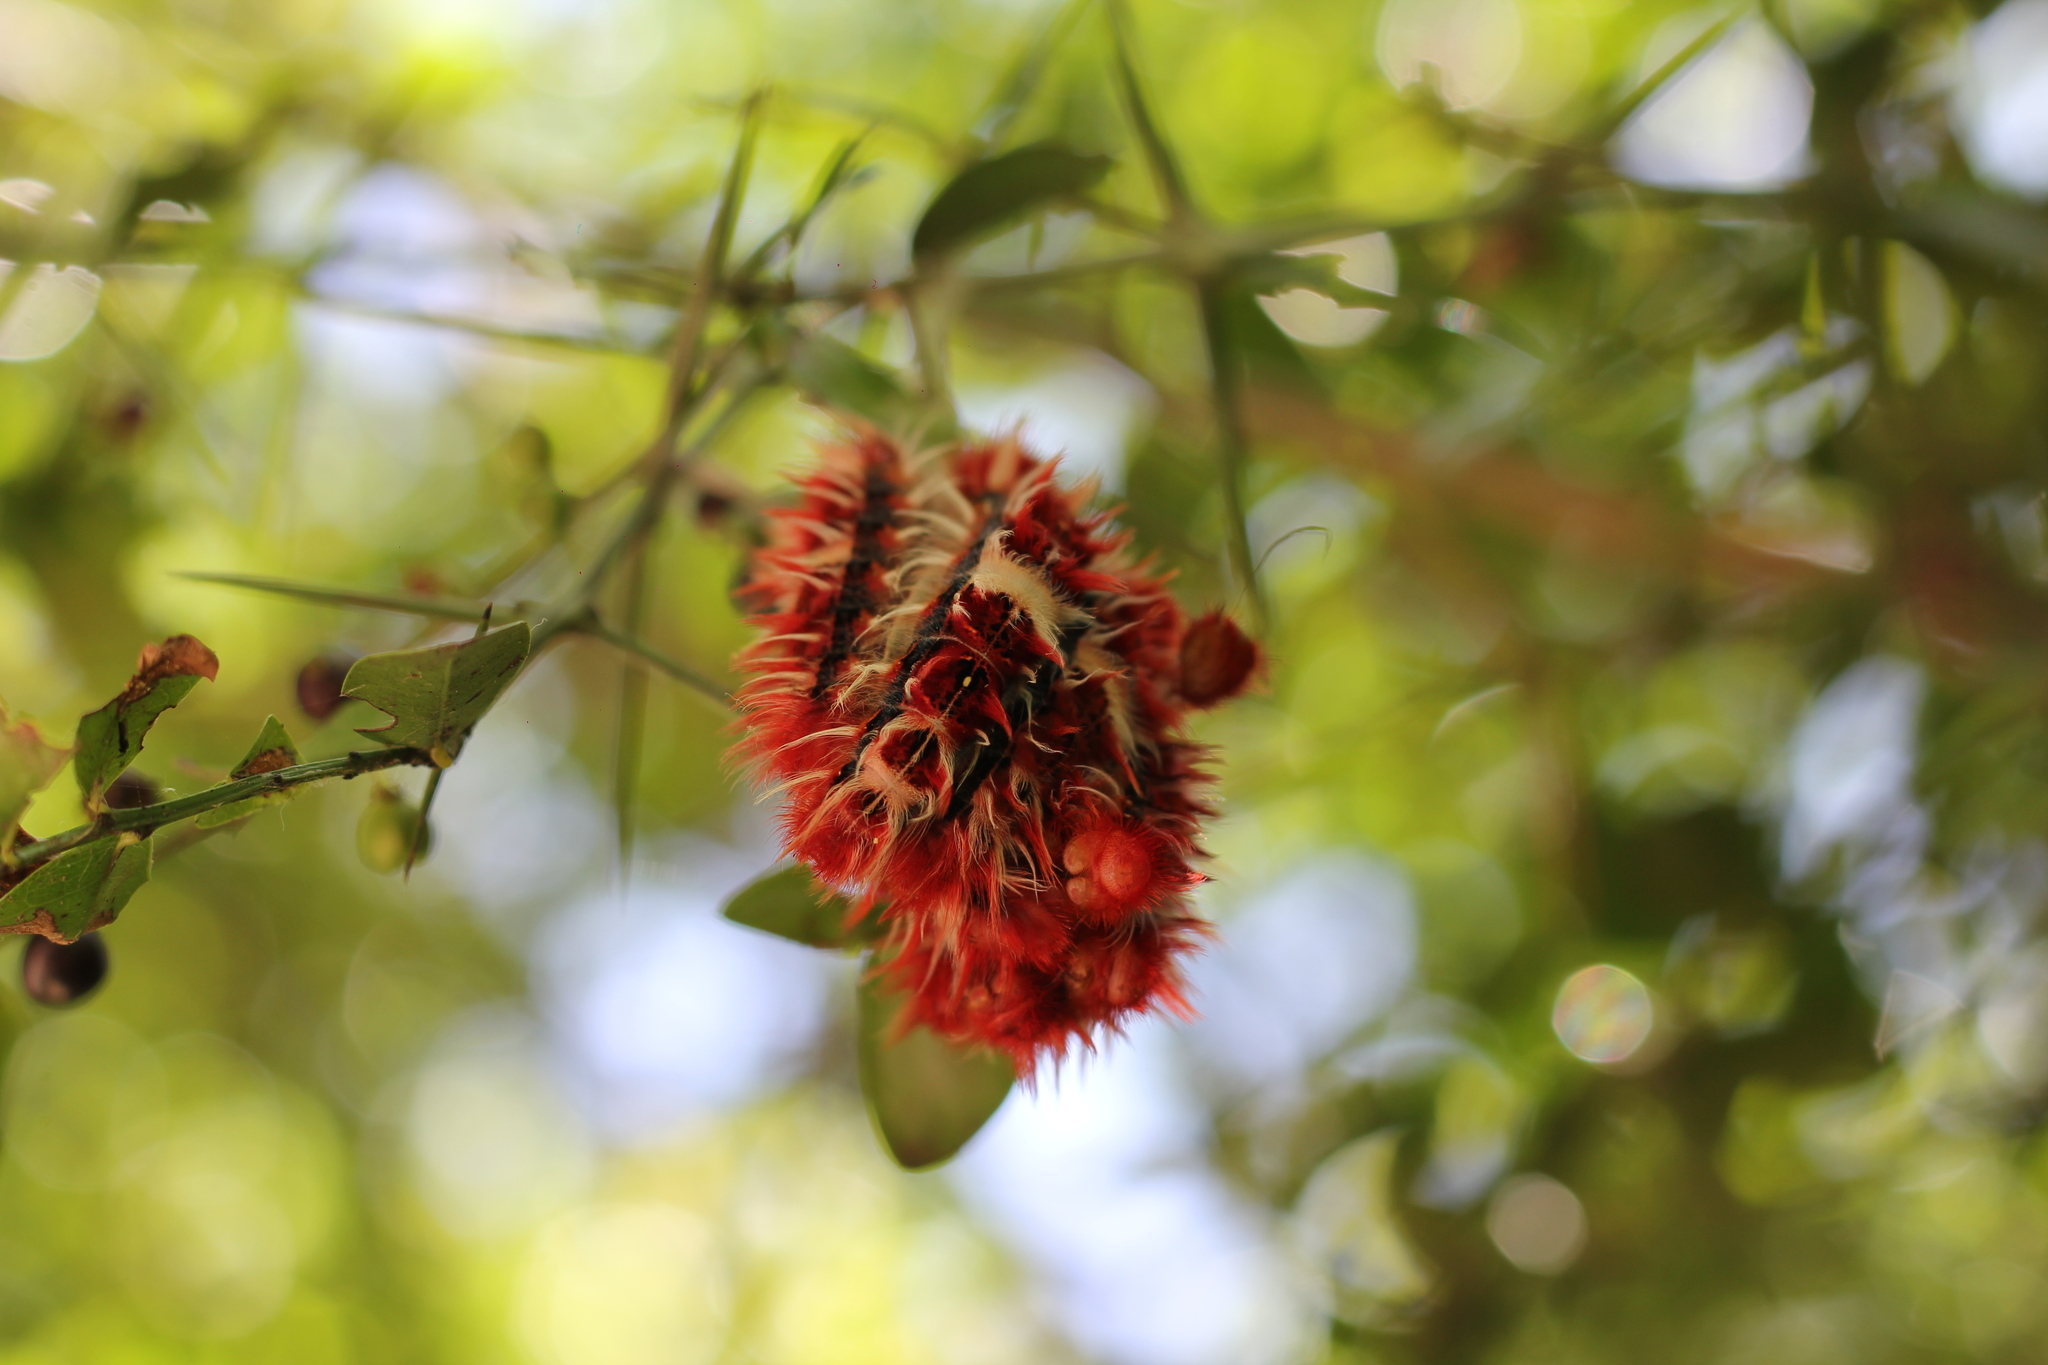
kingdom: Animalia
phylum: Arthropoda
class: Insecta
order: Lepidoptera
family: Nymphalidae
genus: Morpho
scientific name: Morpho epistrophus
